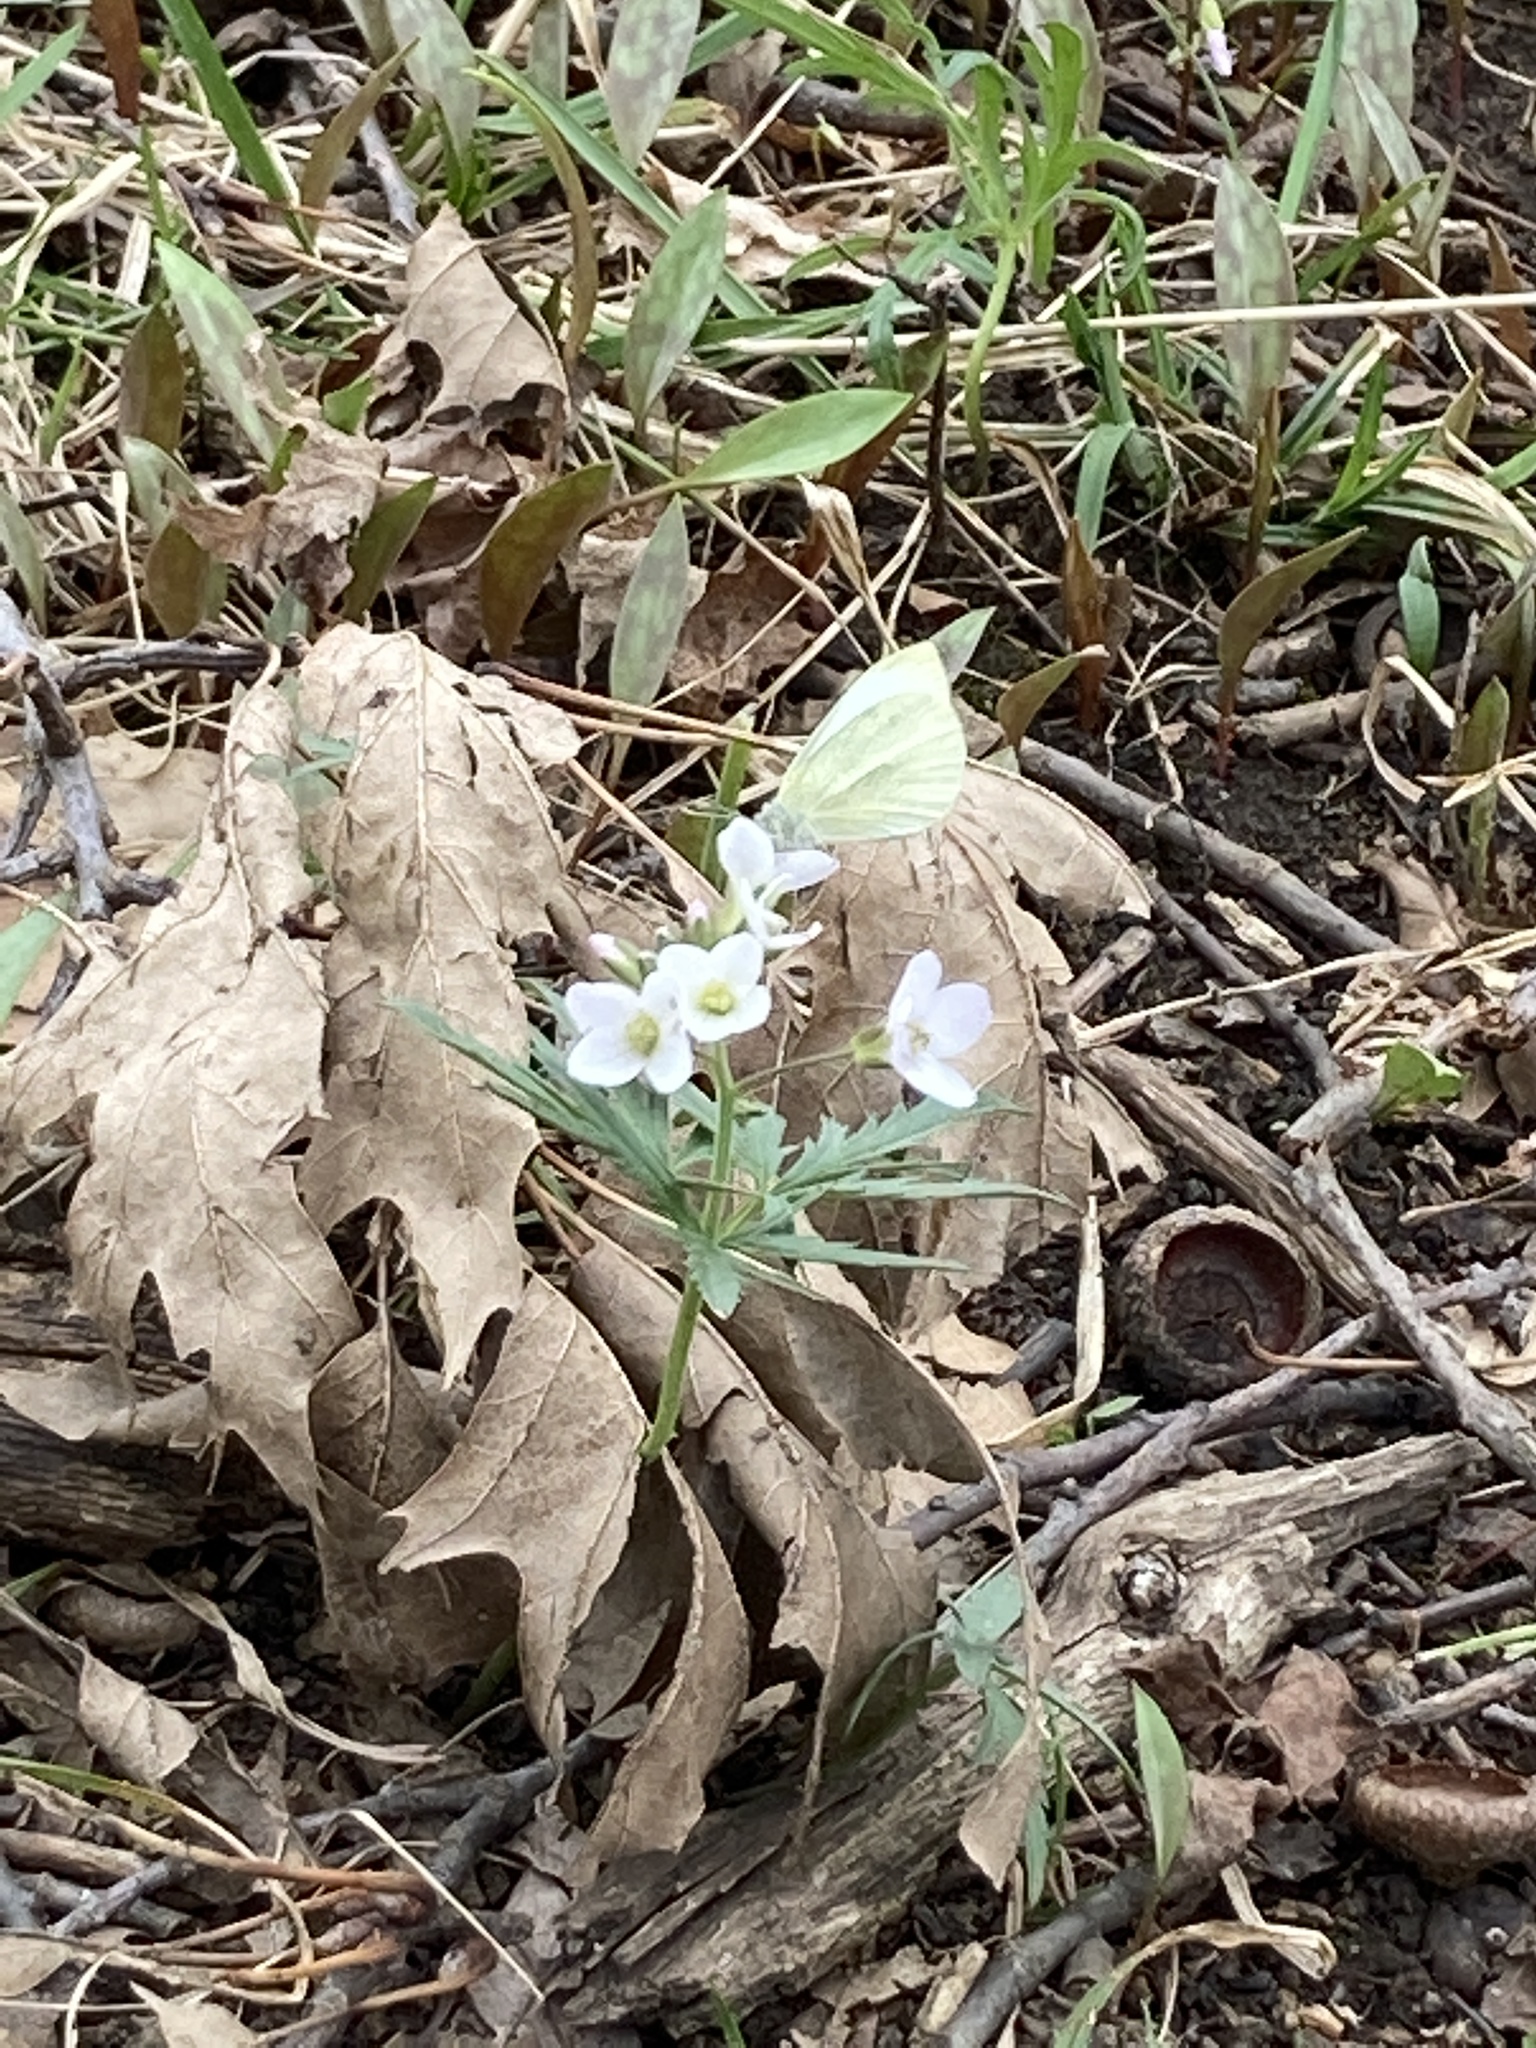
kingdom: Animalia
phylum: Arthropoda
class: Insecta
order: Lepidoptera
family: Pieridae
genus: Pieris
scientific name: Pieris rapae
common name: Small white
